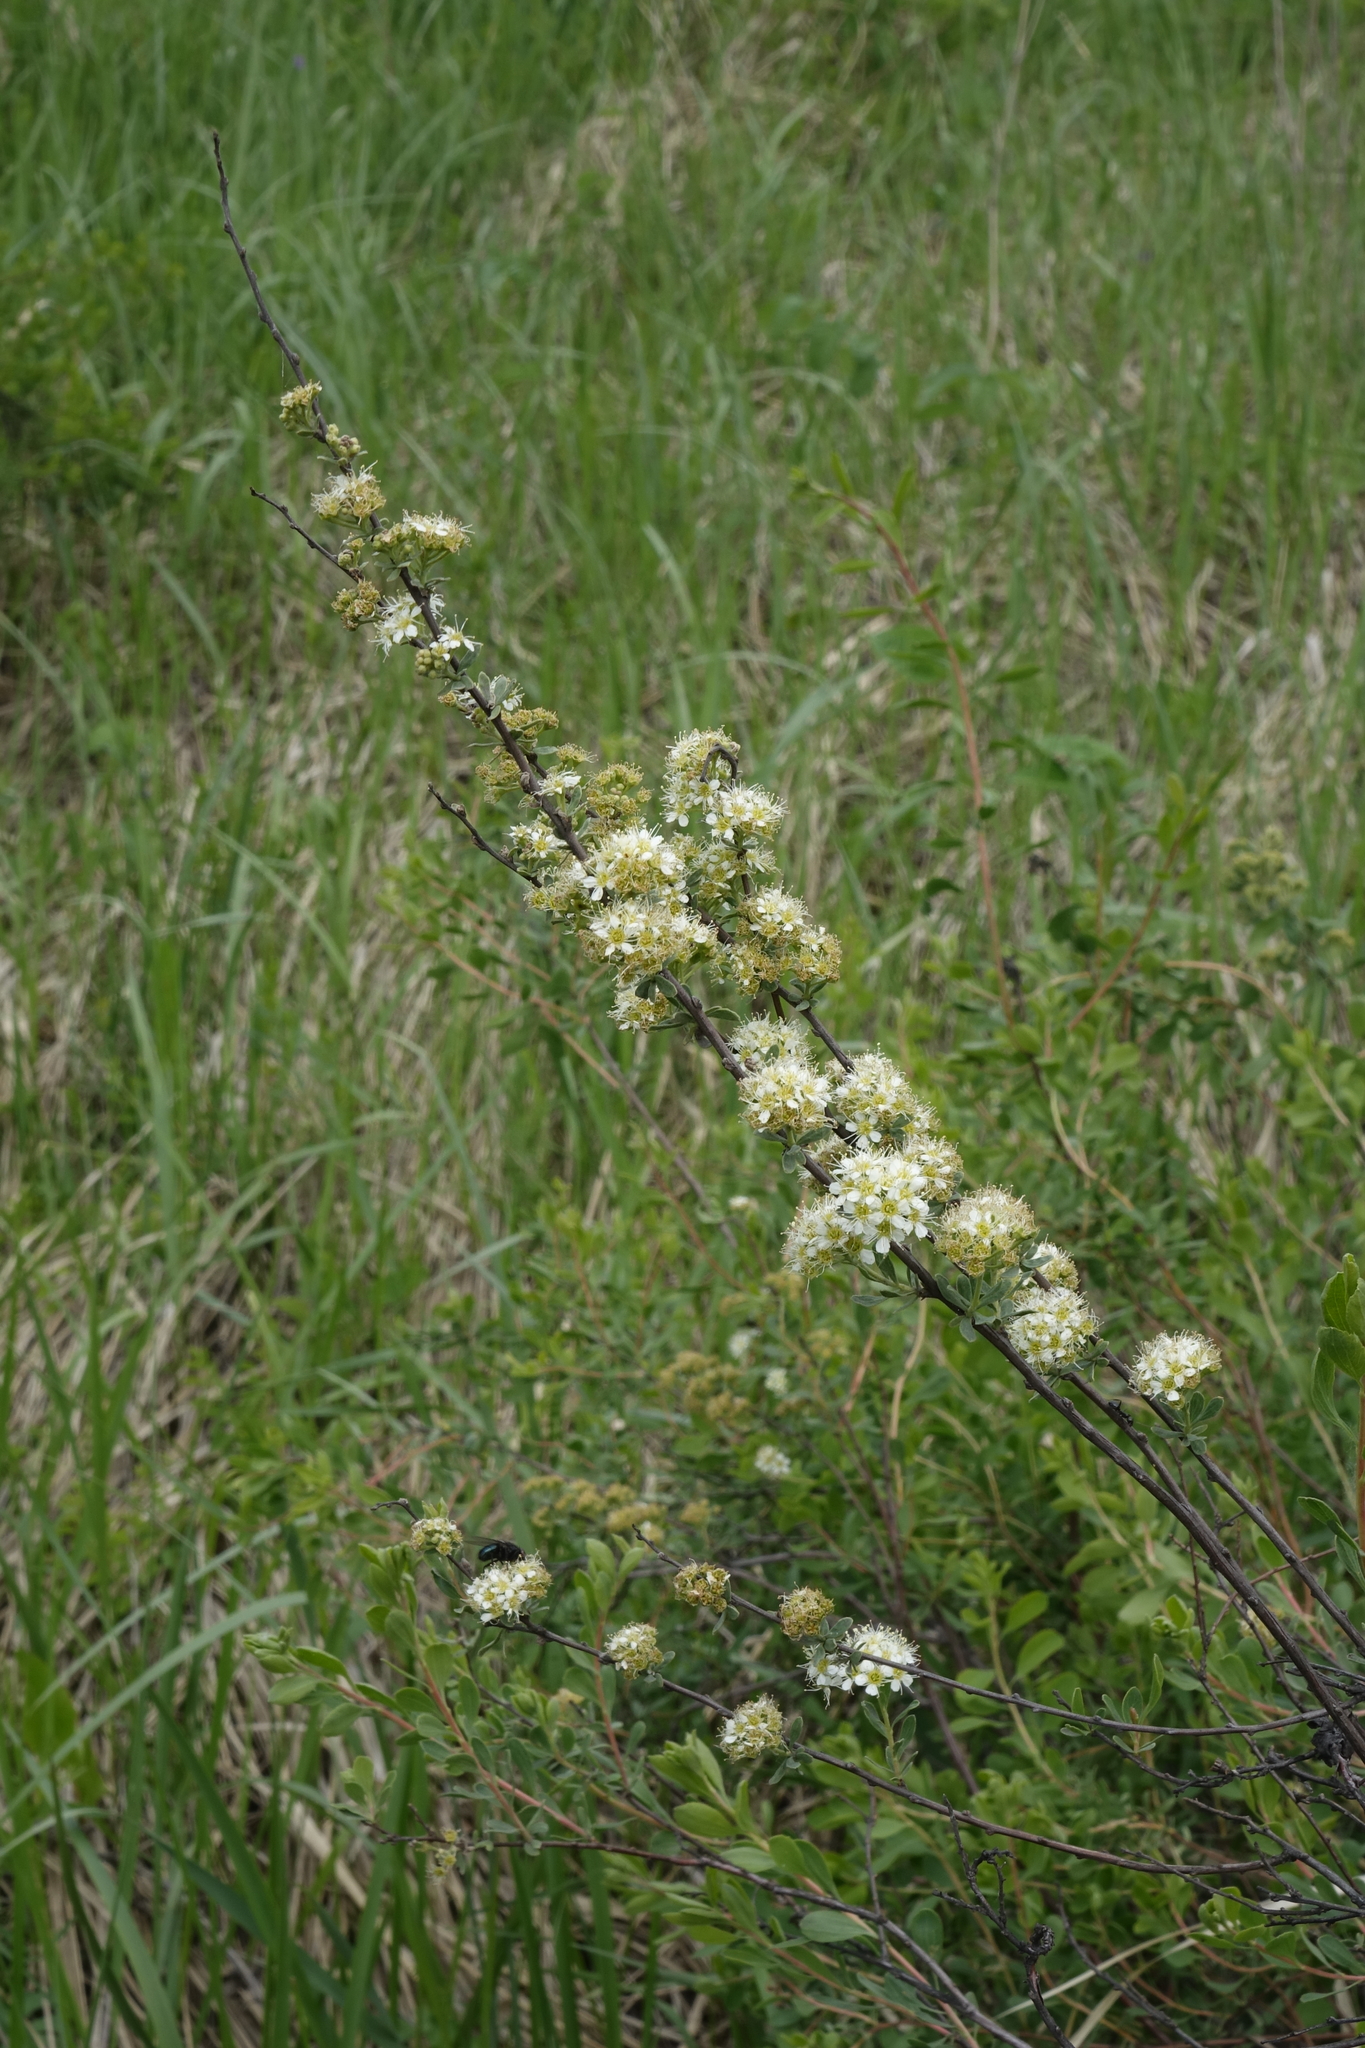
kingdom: Plantae
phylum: Tracheophyta
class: Magnoliopsida
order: Rosales
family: Rosaceae
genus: Spiraea
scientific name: Spiraea crenata
